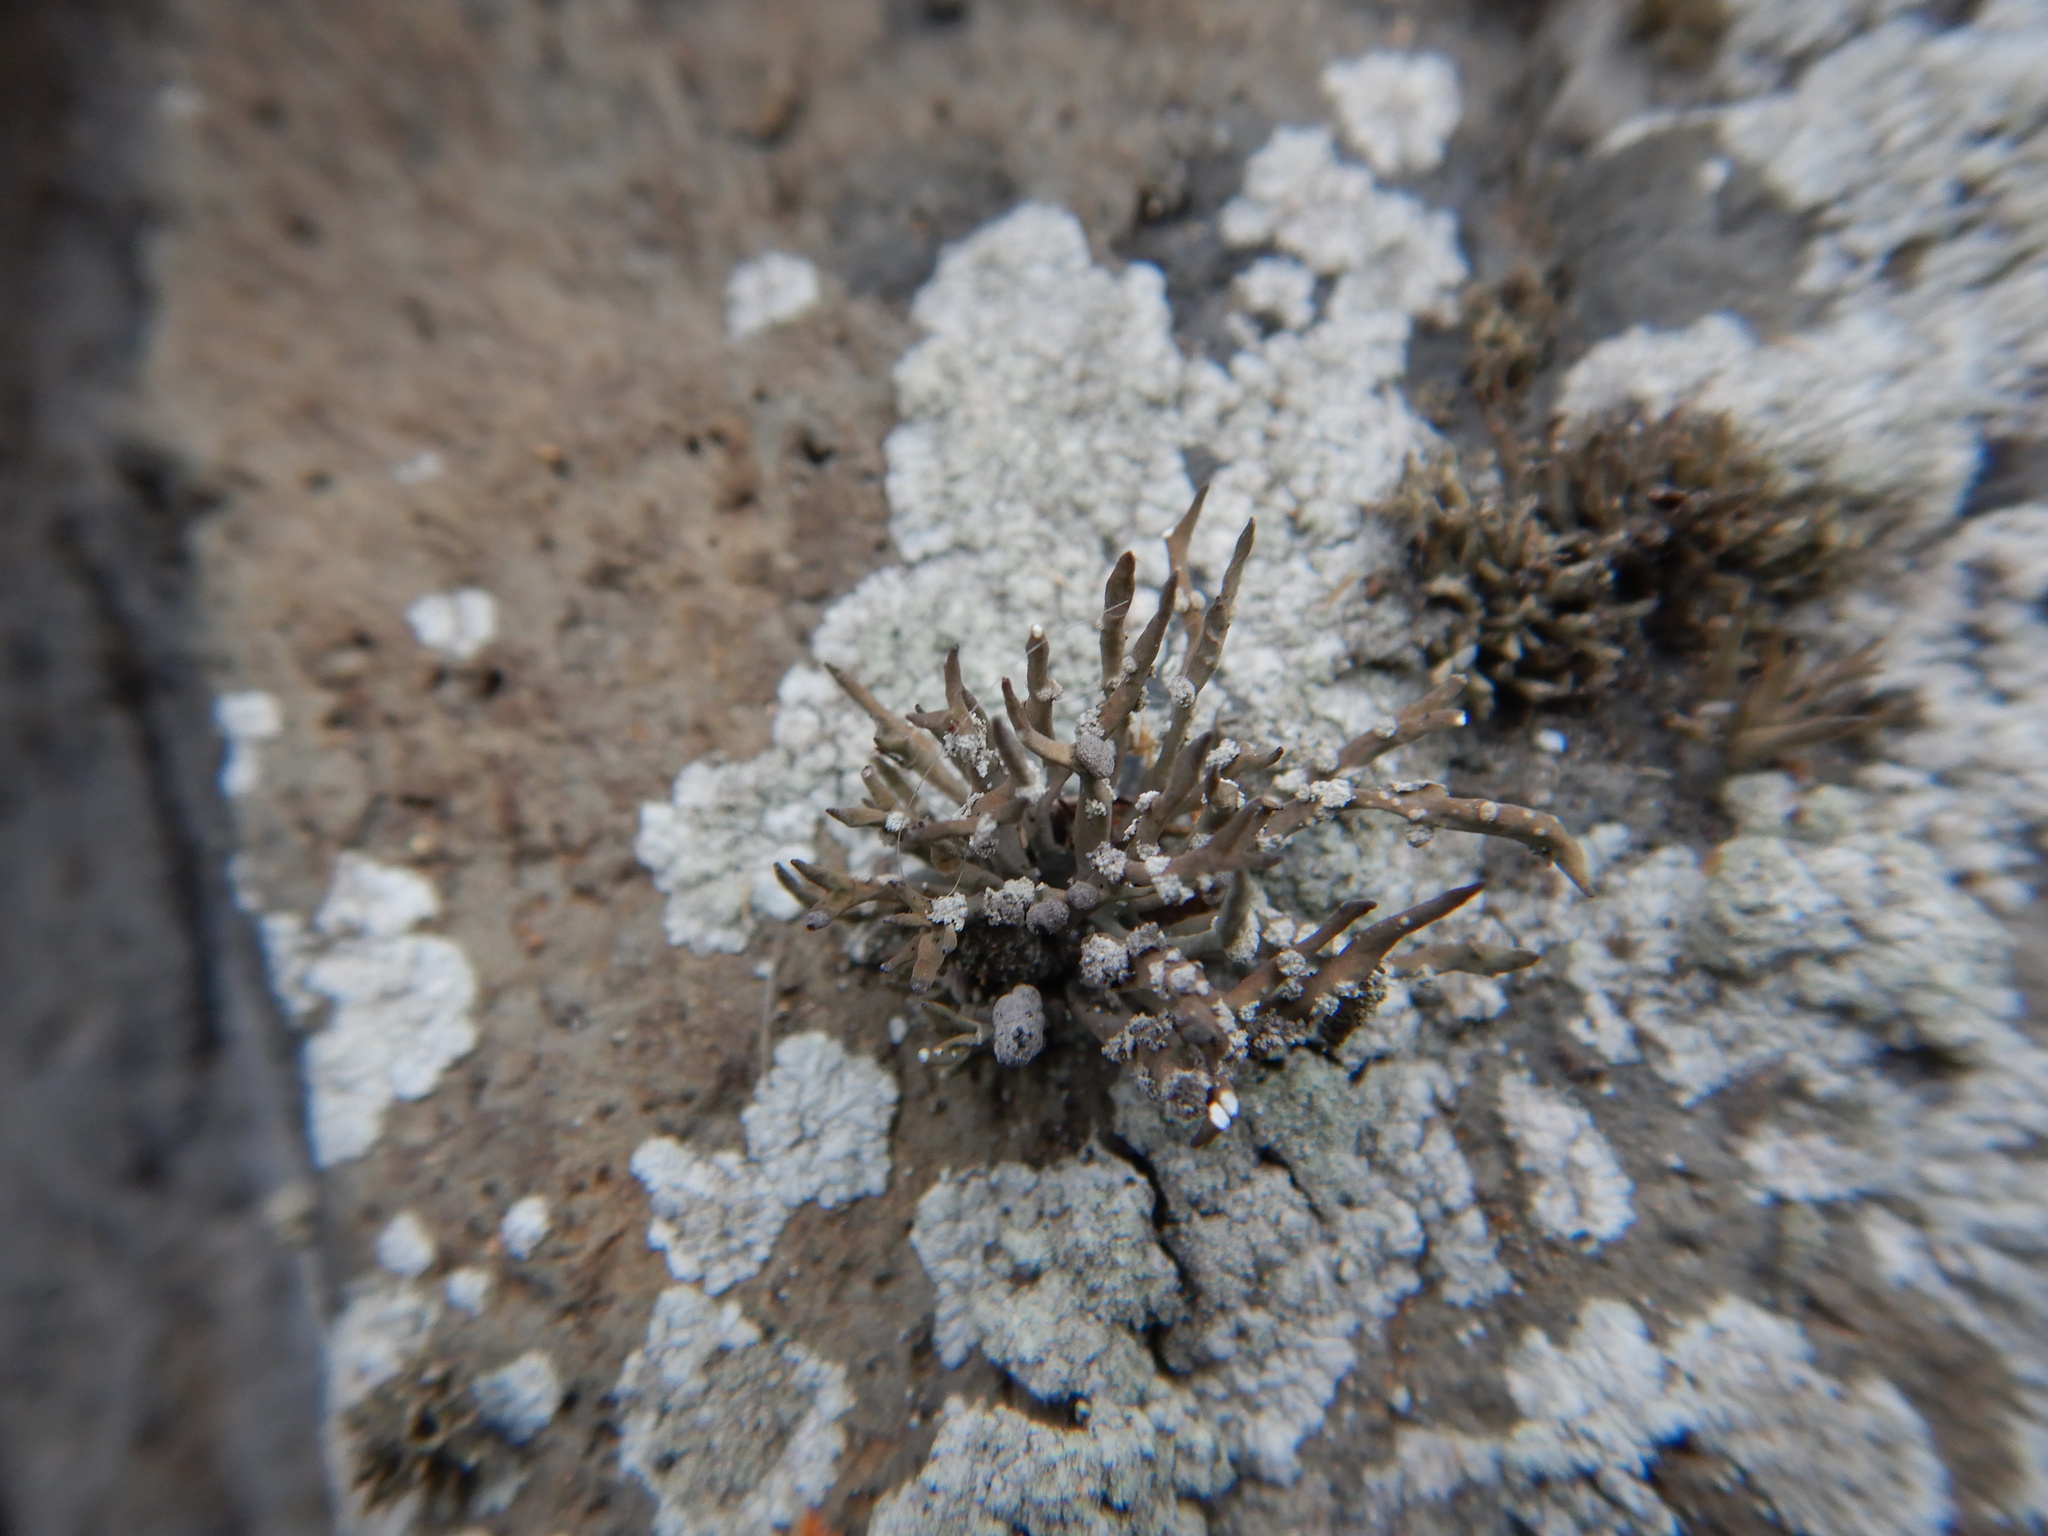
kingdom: Fungi
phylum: Ascomycota
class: Arthoniomycetes
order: Arthoniales
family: Roccellaceae
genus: Roccella
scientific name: Roccella phycopsis
